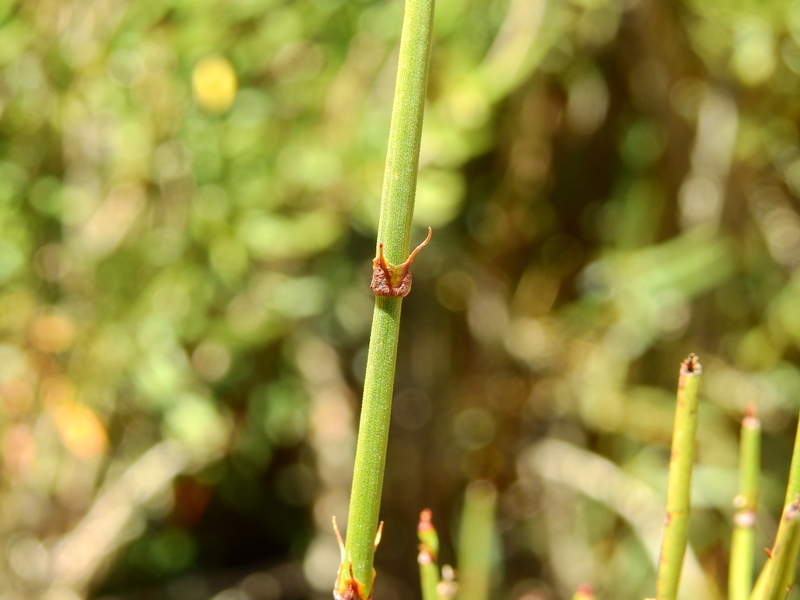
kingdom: Plantae
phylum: Tracheophyta
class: Gnetopsida
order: Ephedrales
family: Ephedraceae
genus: Ephedra
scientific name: Ephedra ochreata
